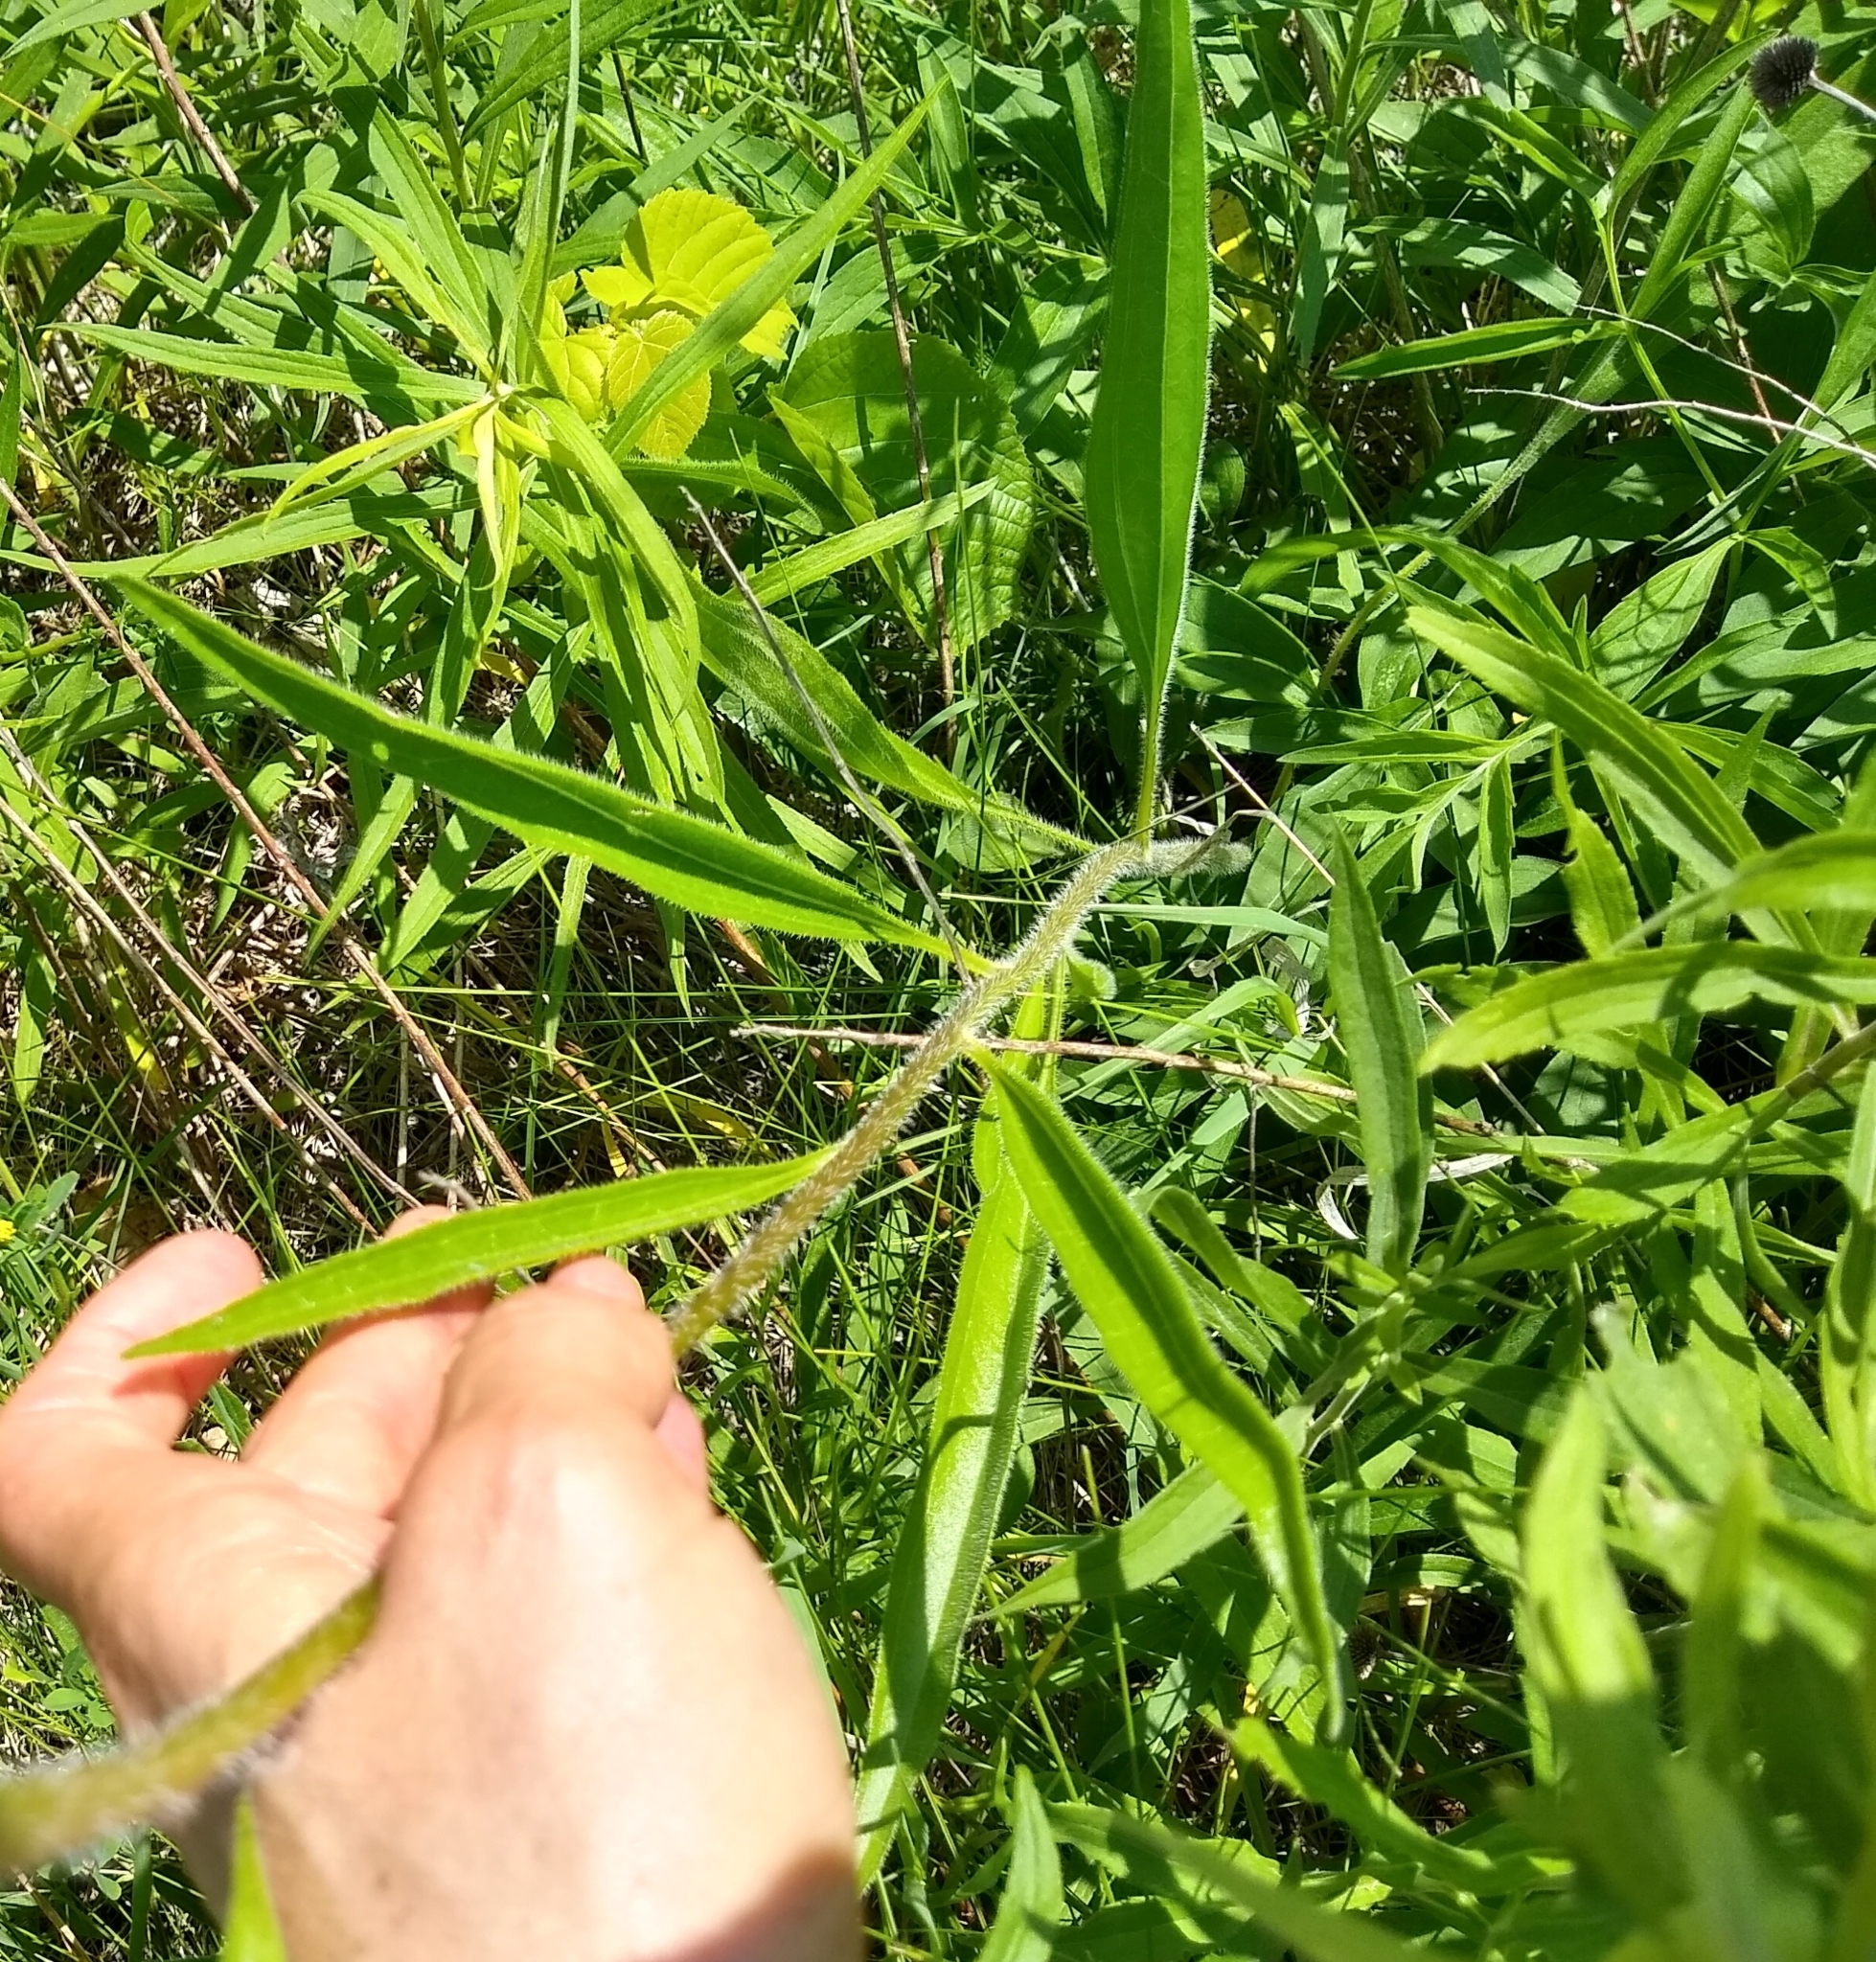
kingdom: Plantae
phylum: Tracheophyta
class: Magnoliopsida
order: Asterales
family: Asteraceae
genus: Echinacea
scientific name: Echinacea pallida
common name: Pale echinacea
